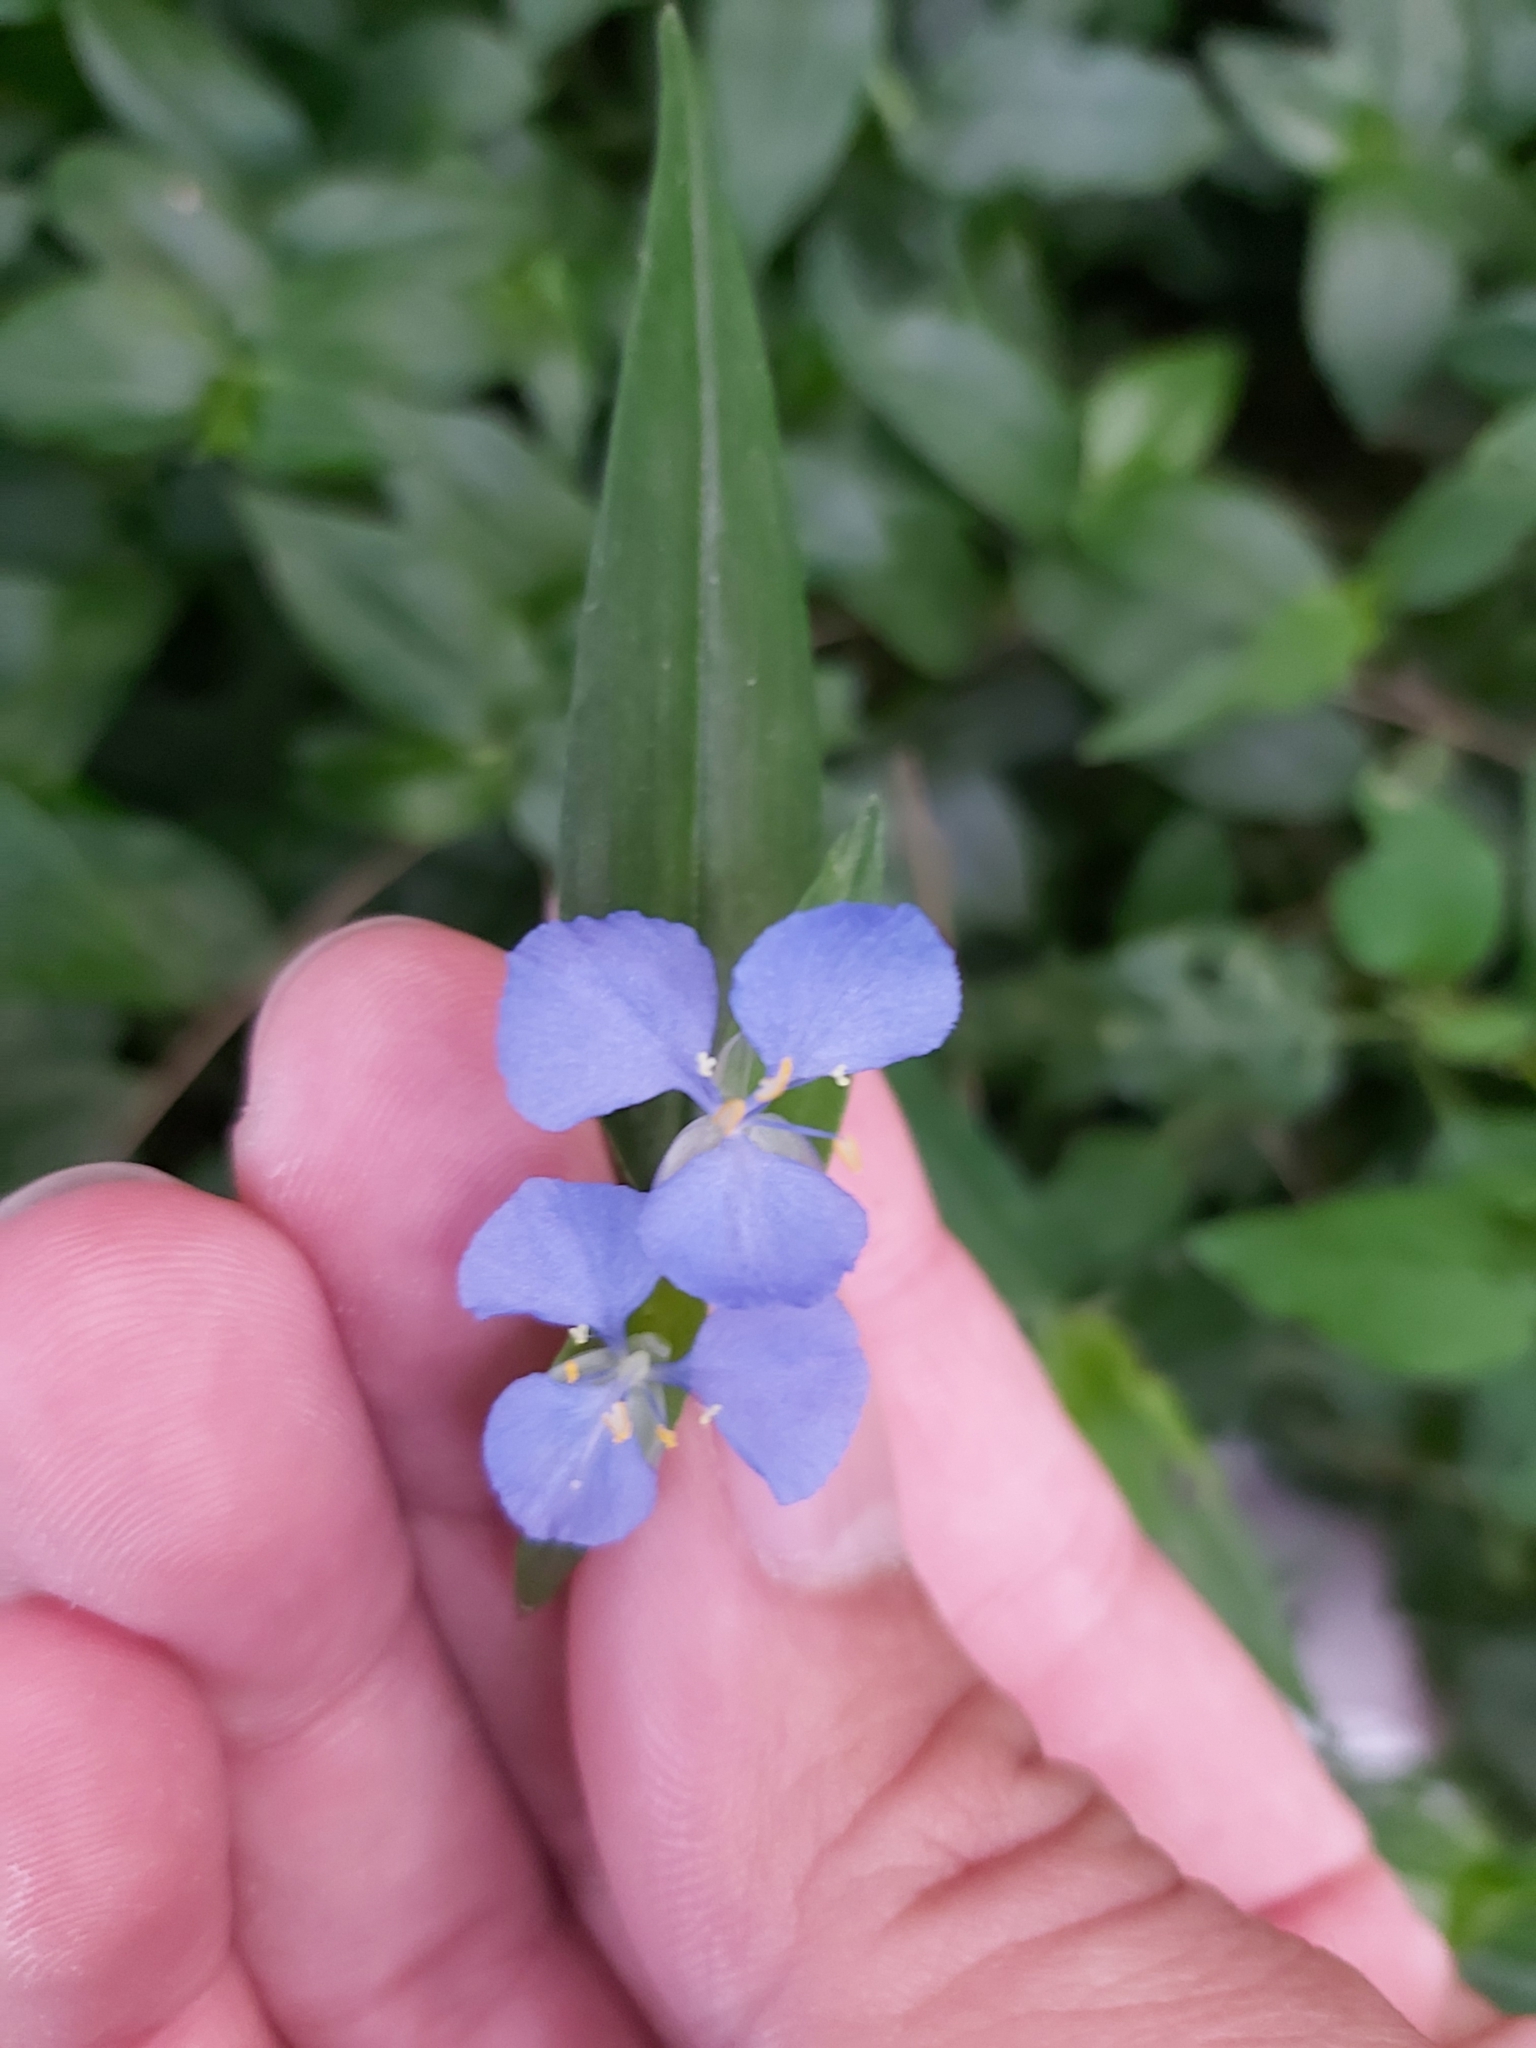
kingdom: Plantae
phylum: Tracheophyta
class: Liliopsida
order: Commelinales
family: Commelinaceae
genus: Commelina
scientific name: Commelina cyanea
